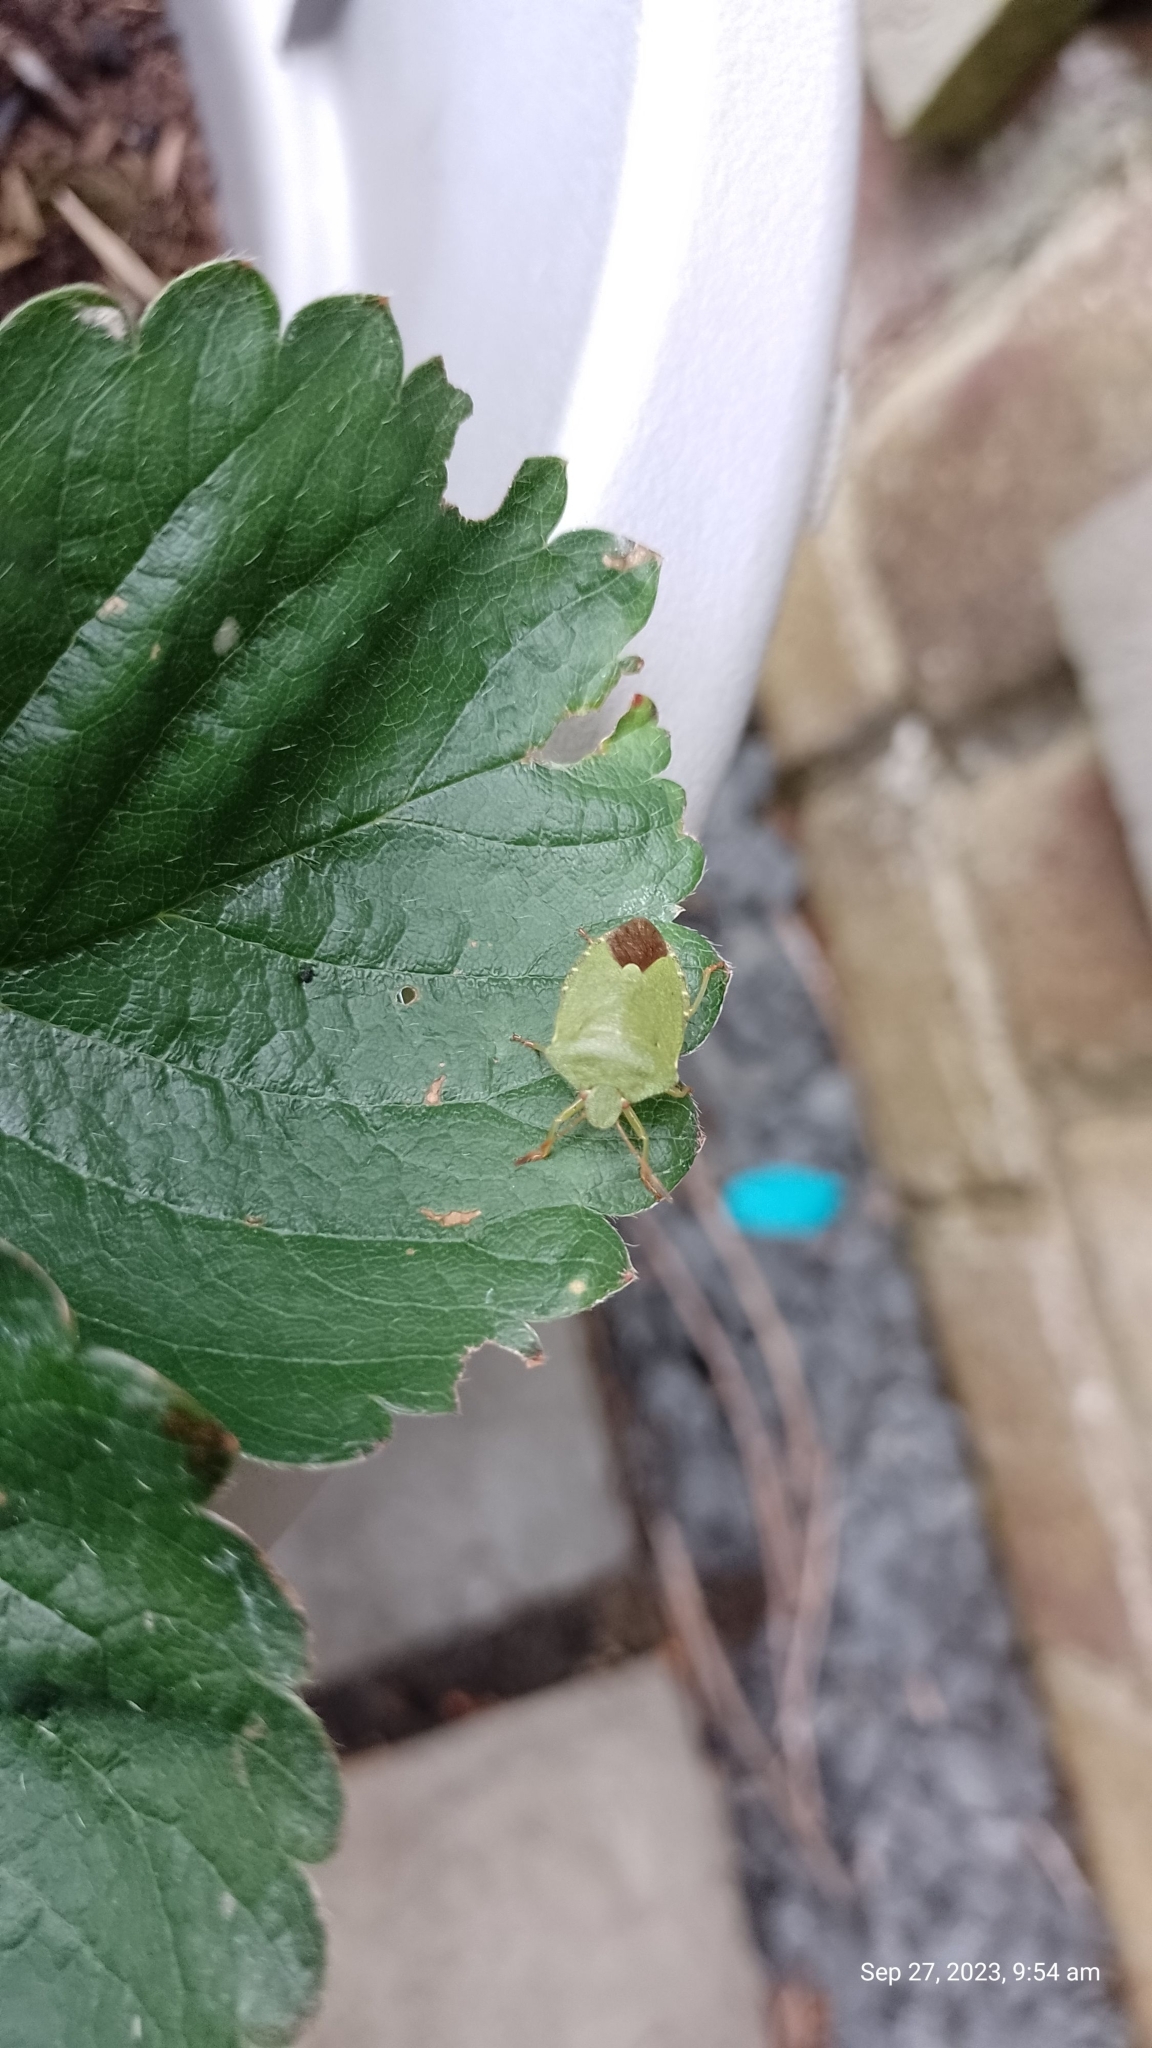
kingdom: Animalia
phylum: Arthropoda
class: Insecta
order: Hemiptera
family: Pentatomidae
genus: Palomena
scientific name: Palomena prasina
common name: Green shieldbug
